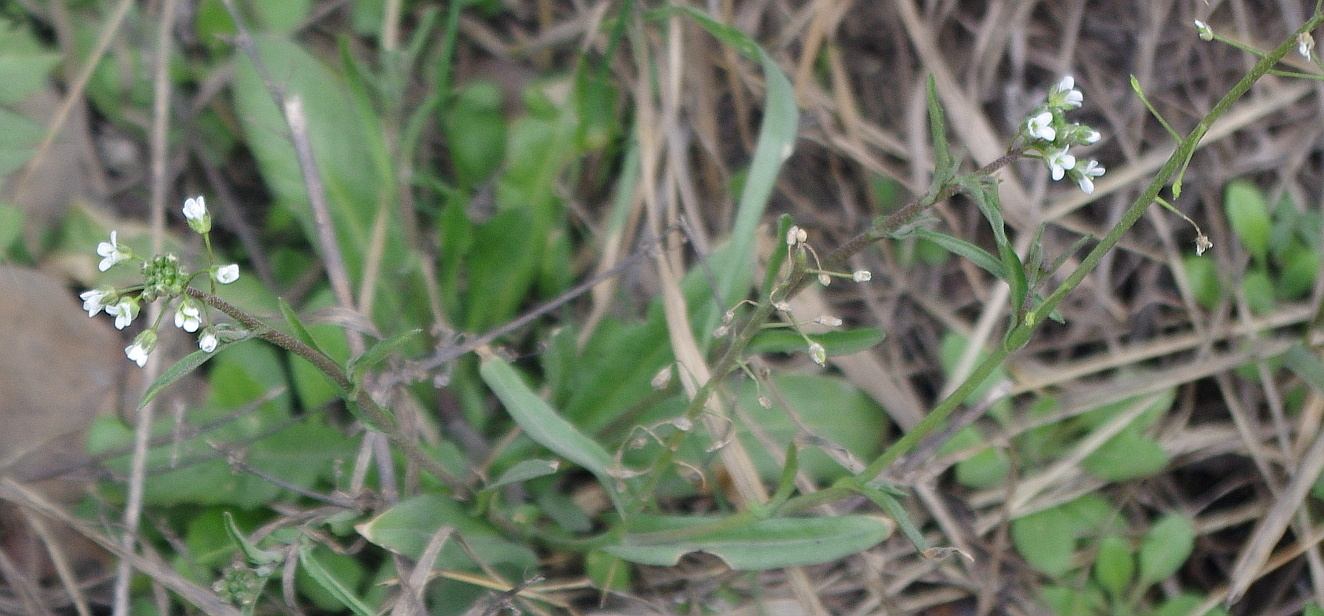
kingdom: Plantae
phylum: Tracheophyta
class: Magnoliopsida
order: Brassicales
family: Brassicaceae
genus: Capsella
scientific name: Capsella bursa-pastoris
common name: Shepherd's purse
